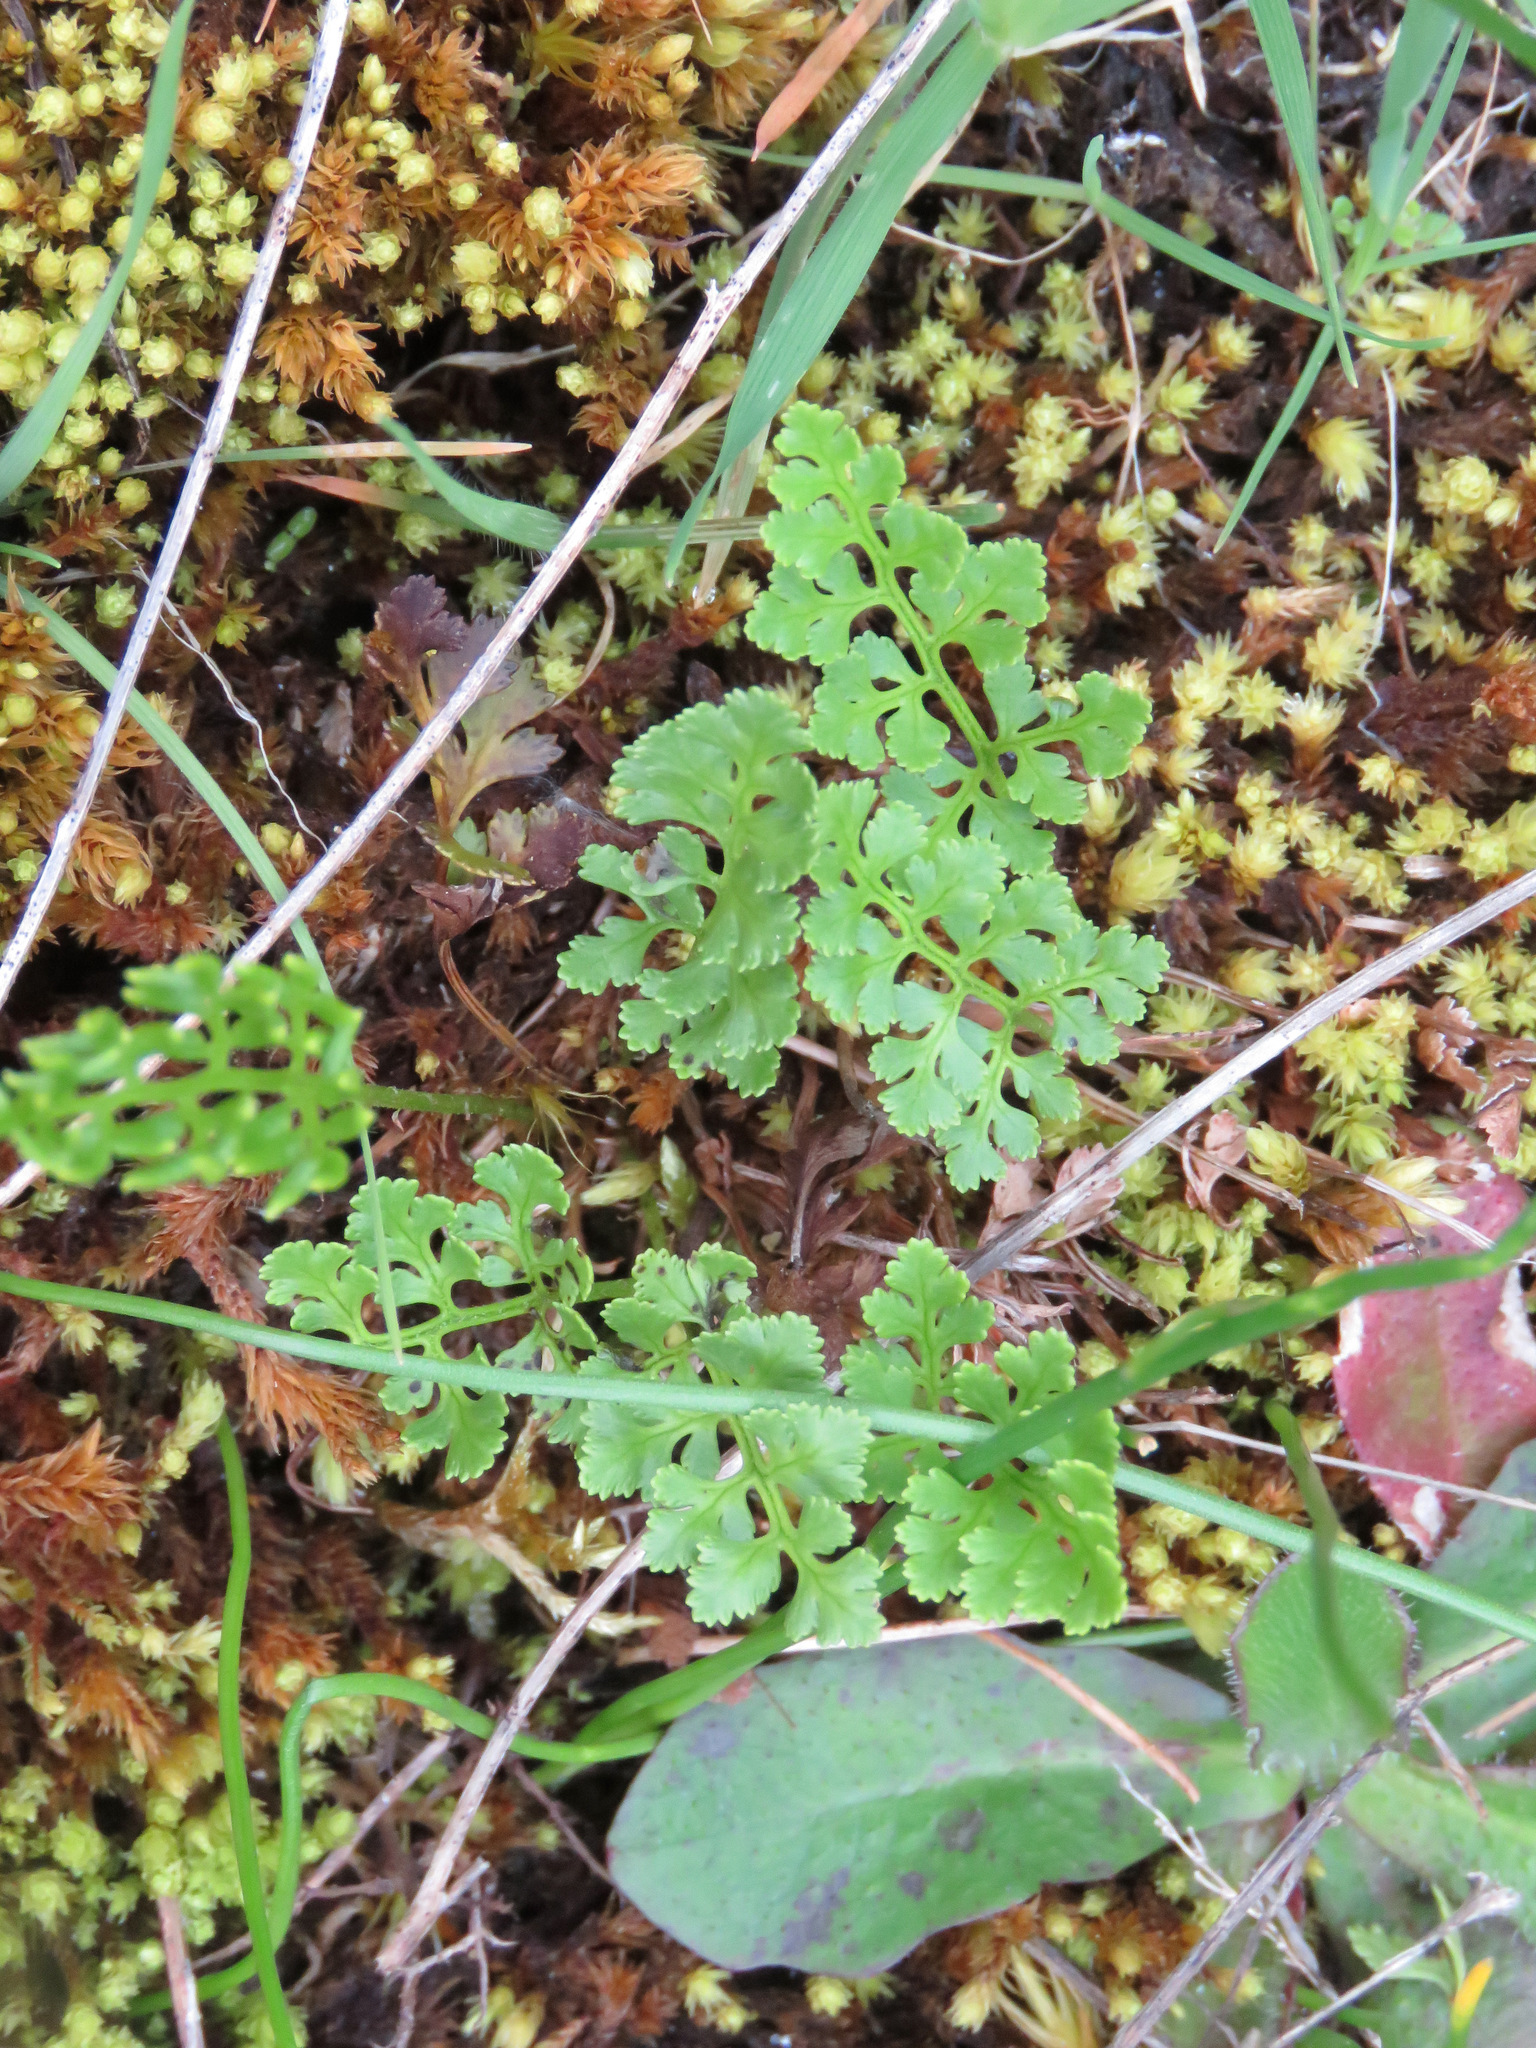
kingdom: Plantae
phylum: Tracheophyta
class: Polypodiopsida
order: Polypodiales
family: Pteridaceae
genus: Cryptogramma
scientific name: Cryptogramma acrostichoides
